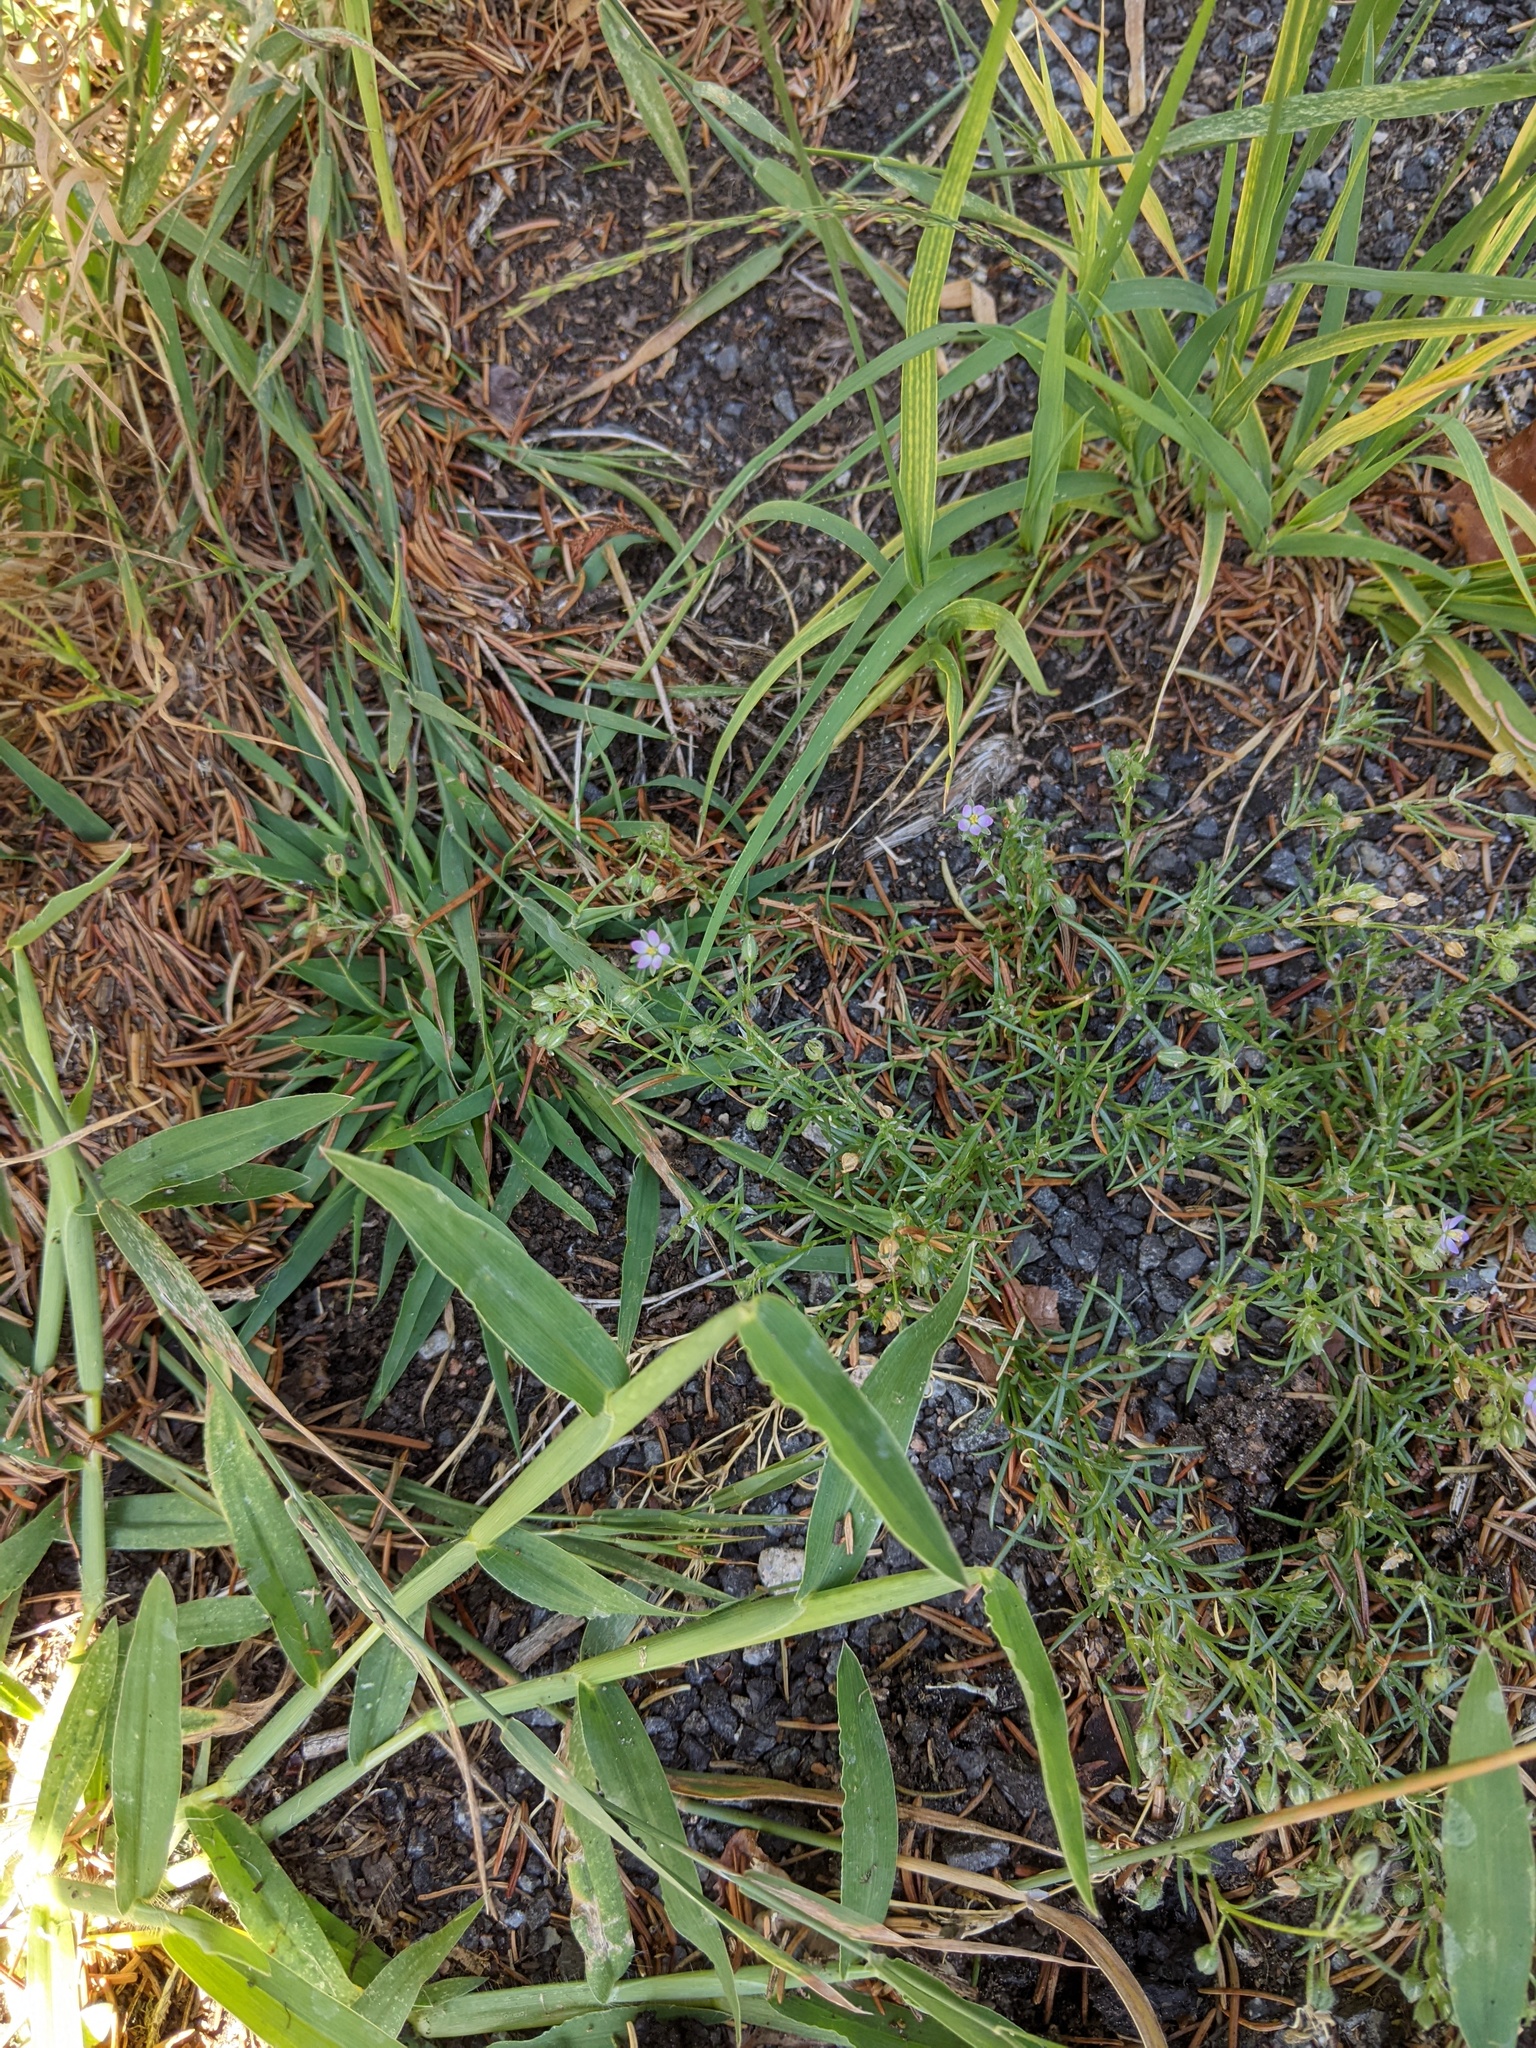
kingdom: Plantae
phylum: Tracheophyta
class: Magnoliopsida
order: Caryophyllales
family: Caryophyllaceae
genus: Spergularia
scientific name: Spergularia rubra
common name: Red sand-spurrey
